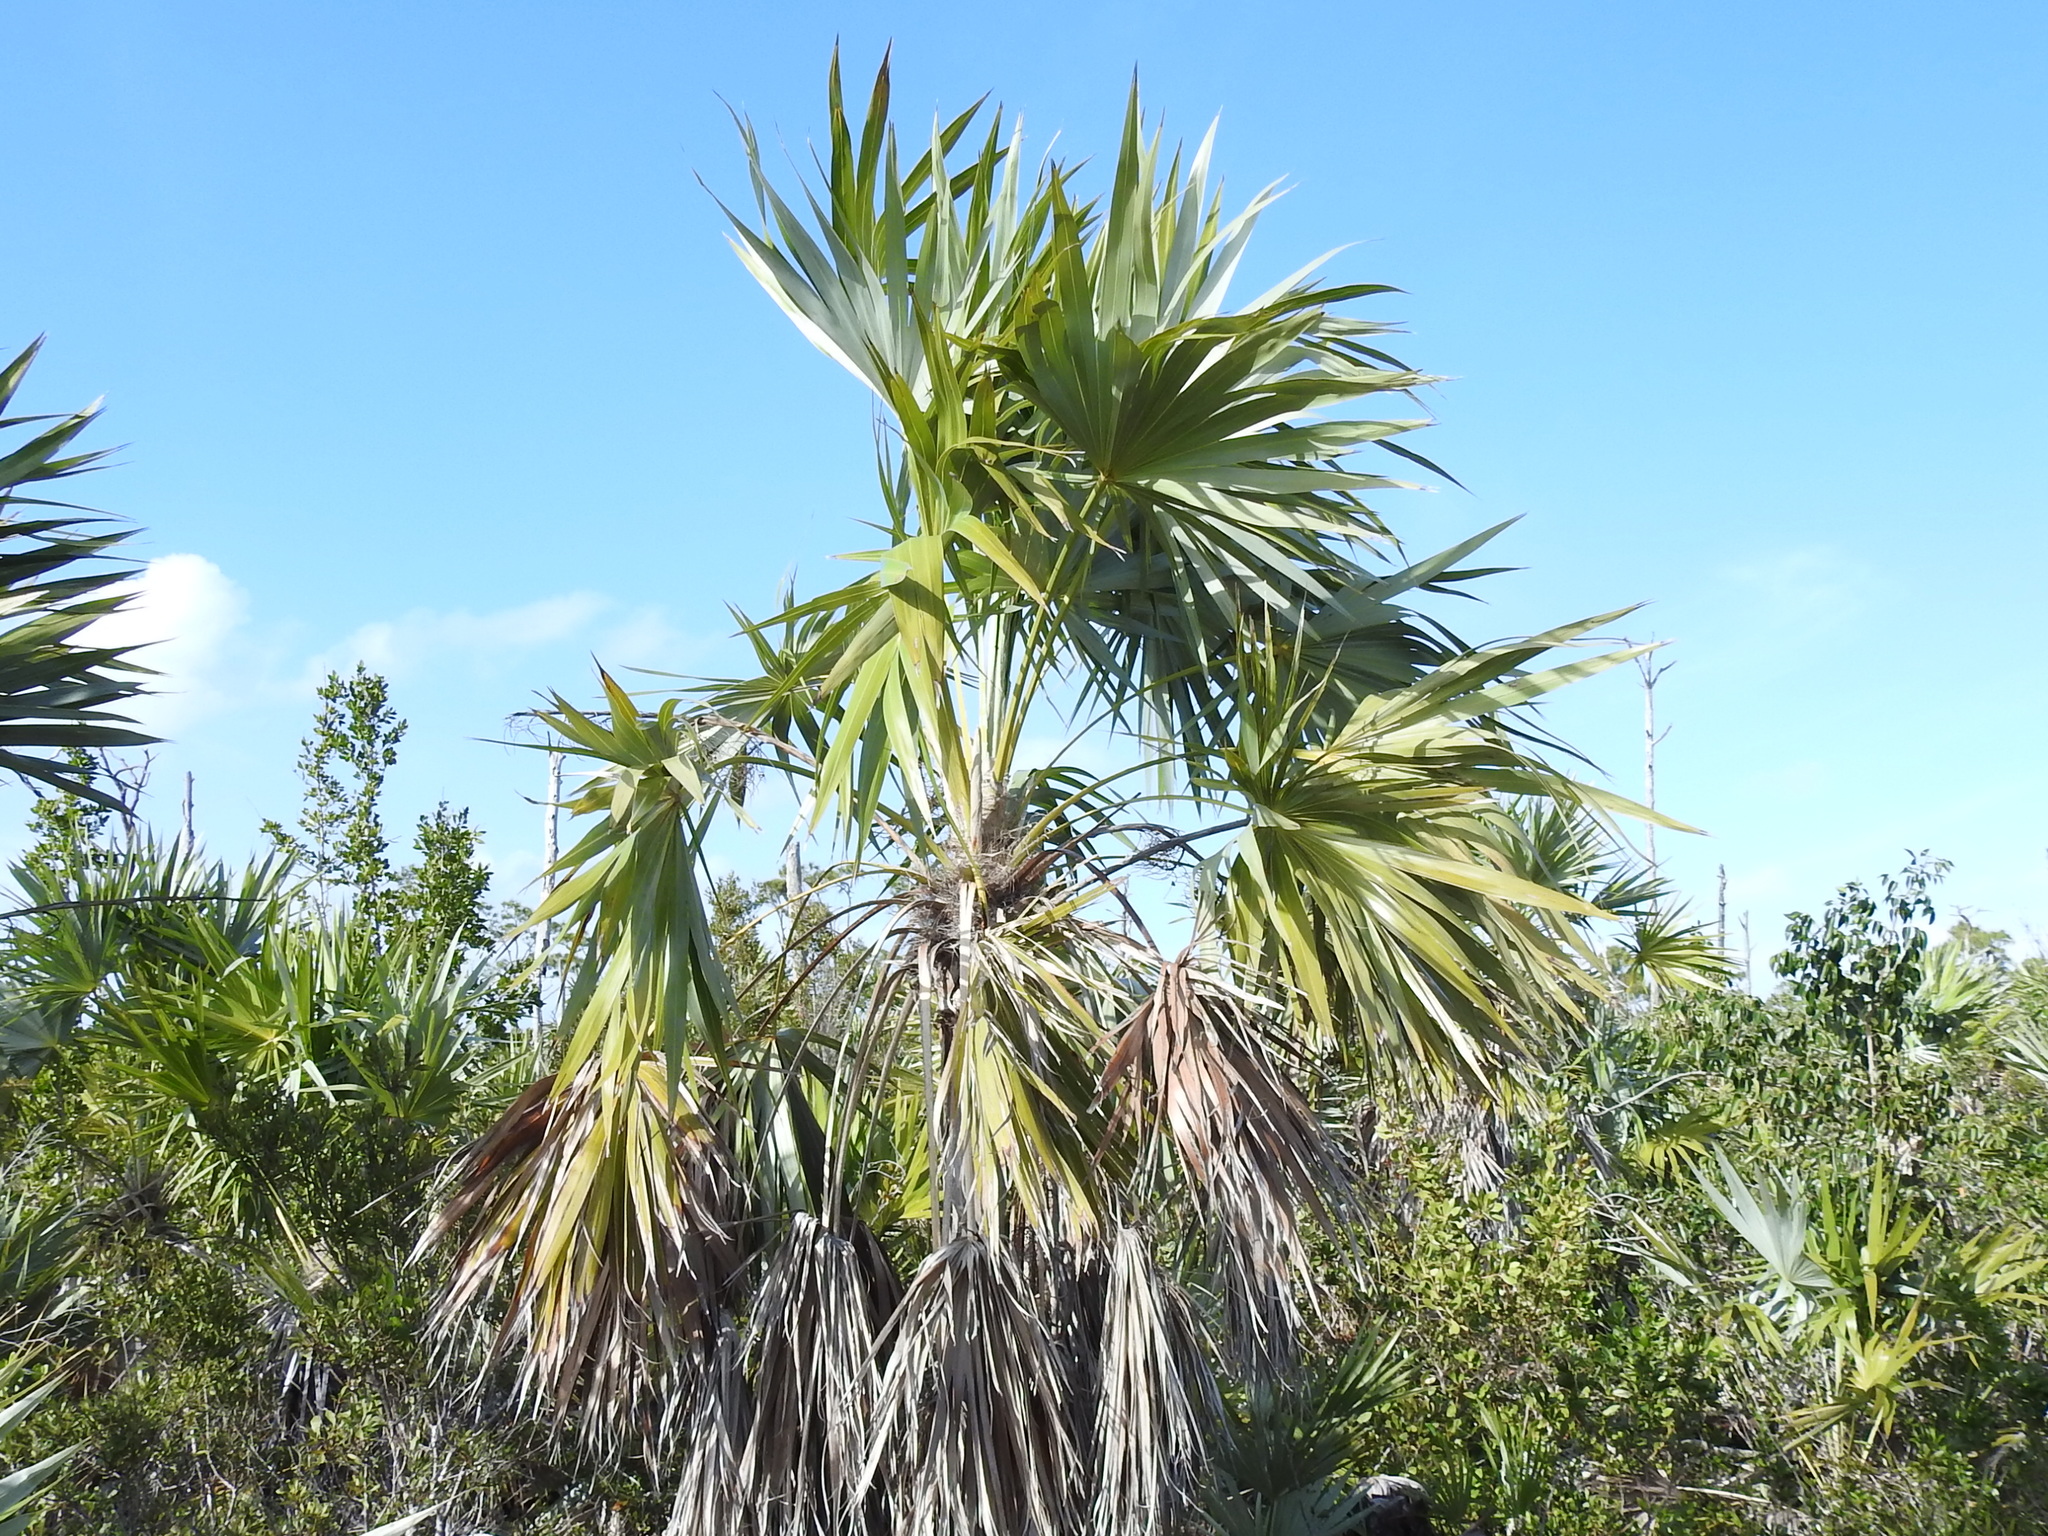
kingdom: Plantae
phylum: Tracheophyta
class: Liliopsida
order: Arecales
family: Arecaceae
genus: Leucothrinax
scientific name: Leucothrinax morrisii
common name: Key palm
